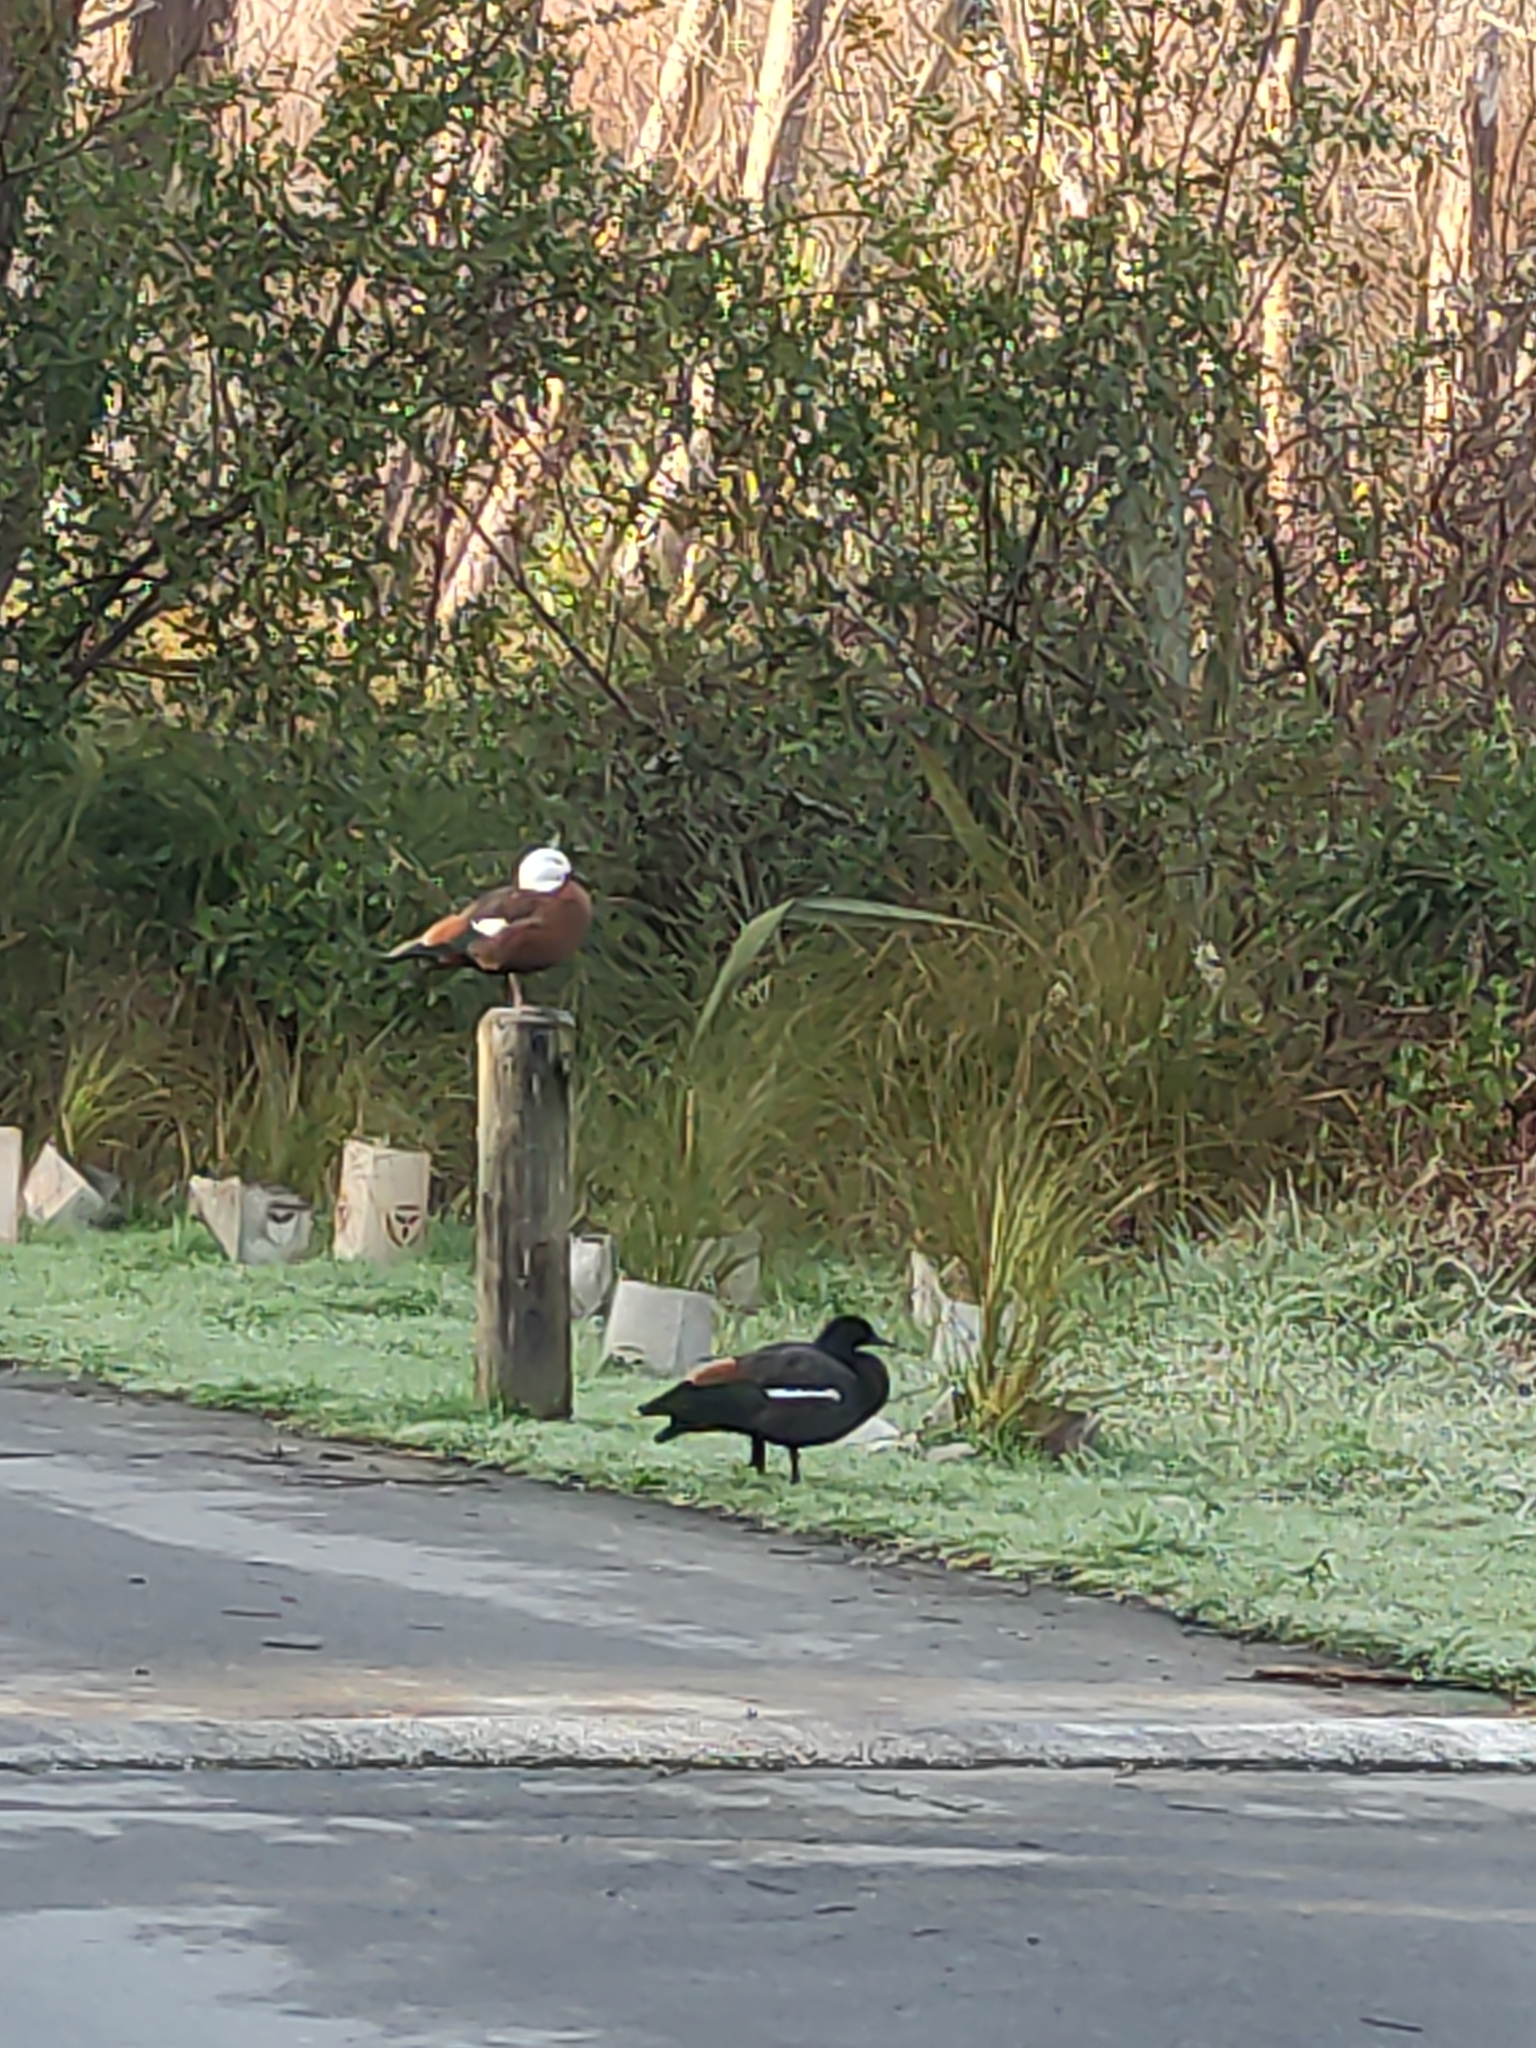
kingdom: Animalia
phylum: Chordata
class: Aves
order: Anseriformes
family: Anatidae
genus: Tadorna
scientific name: Tadorna variegata
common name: Paradise shelduck
